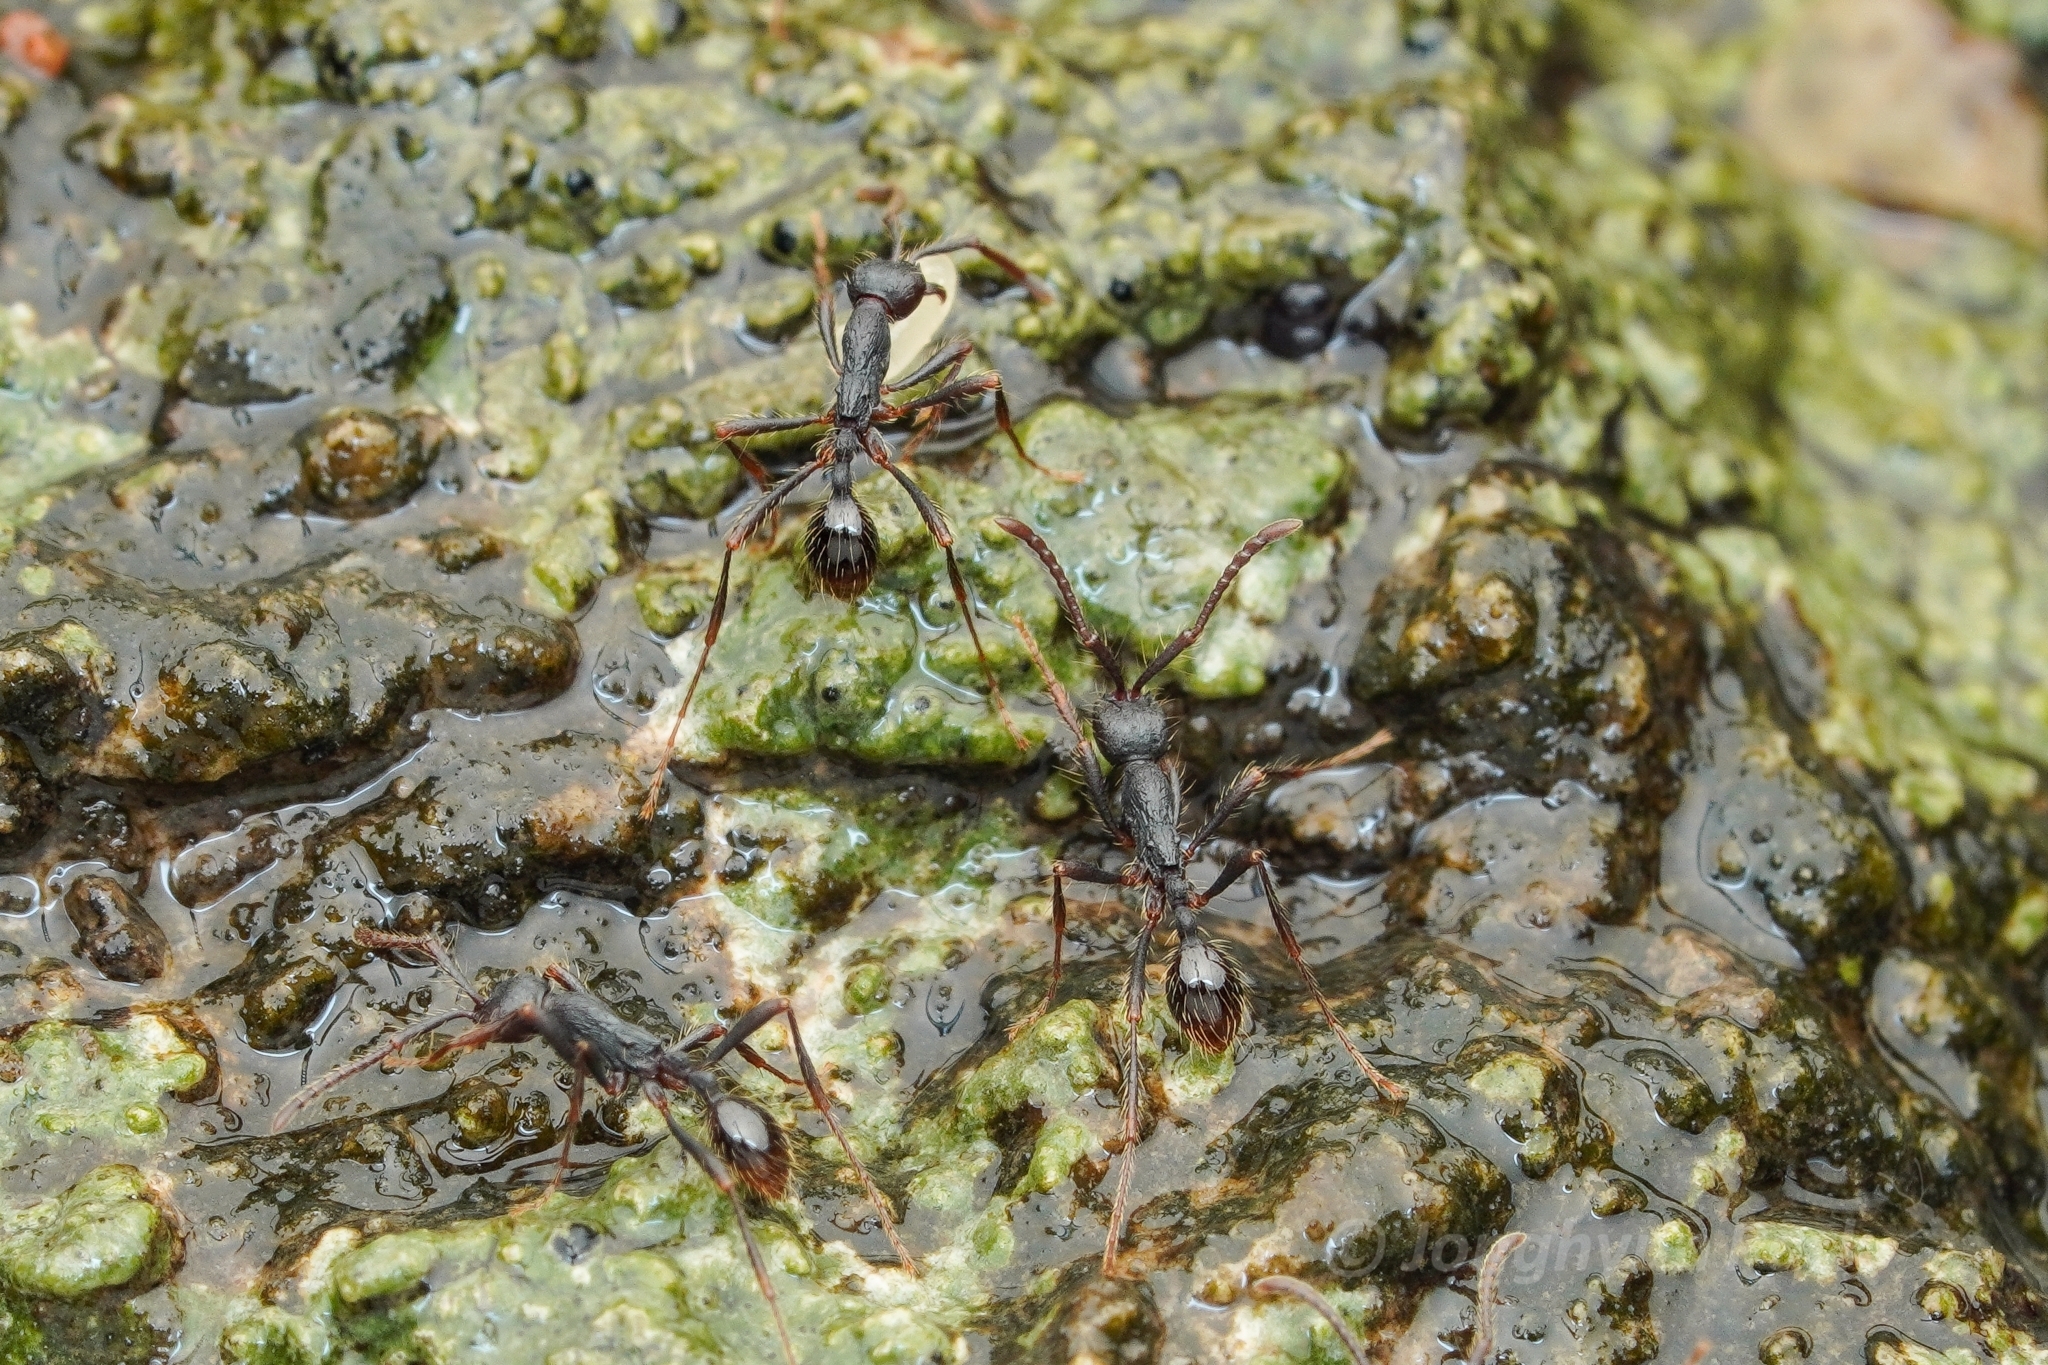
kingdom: Animalia
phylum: Arthropoda
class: Insecta
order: Hymenoptera
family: Formicidae
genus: Aenictus
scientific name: Aenictus paradentatus
